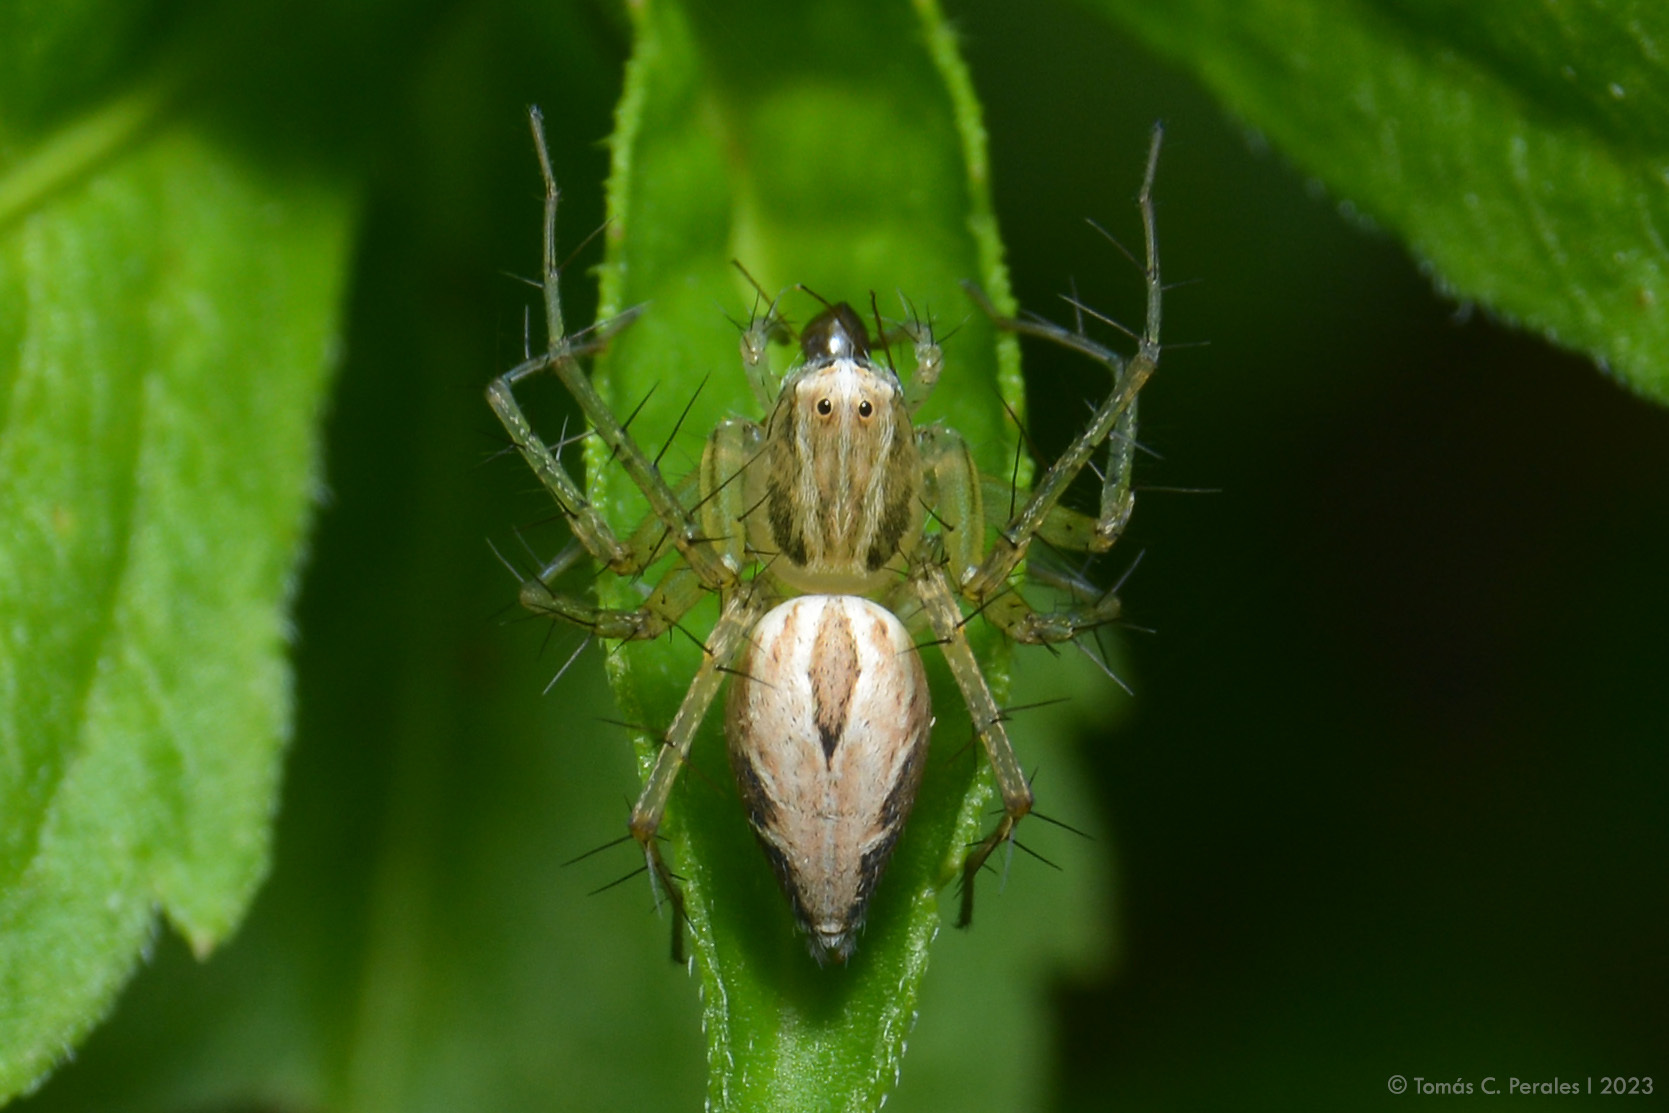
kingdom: Animalia
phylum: Arthropoda
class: Arachnida
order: Araneae
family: Oxyopidae
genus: Oxyopes
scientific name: Oxyopes salticus
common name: Lynx spiders
